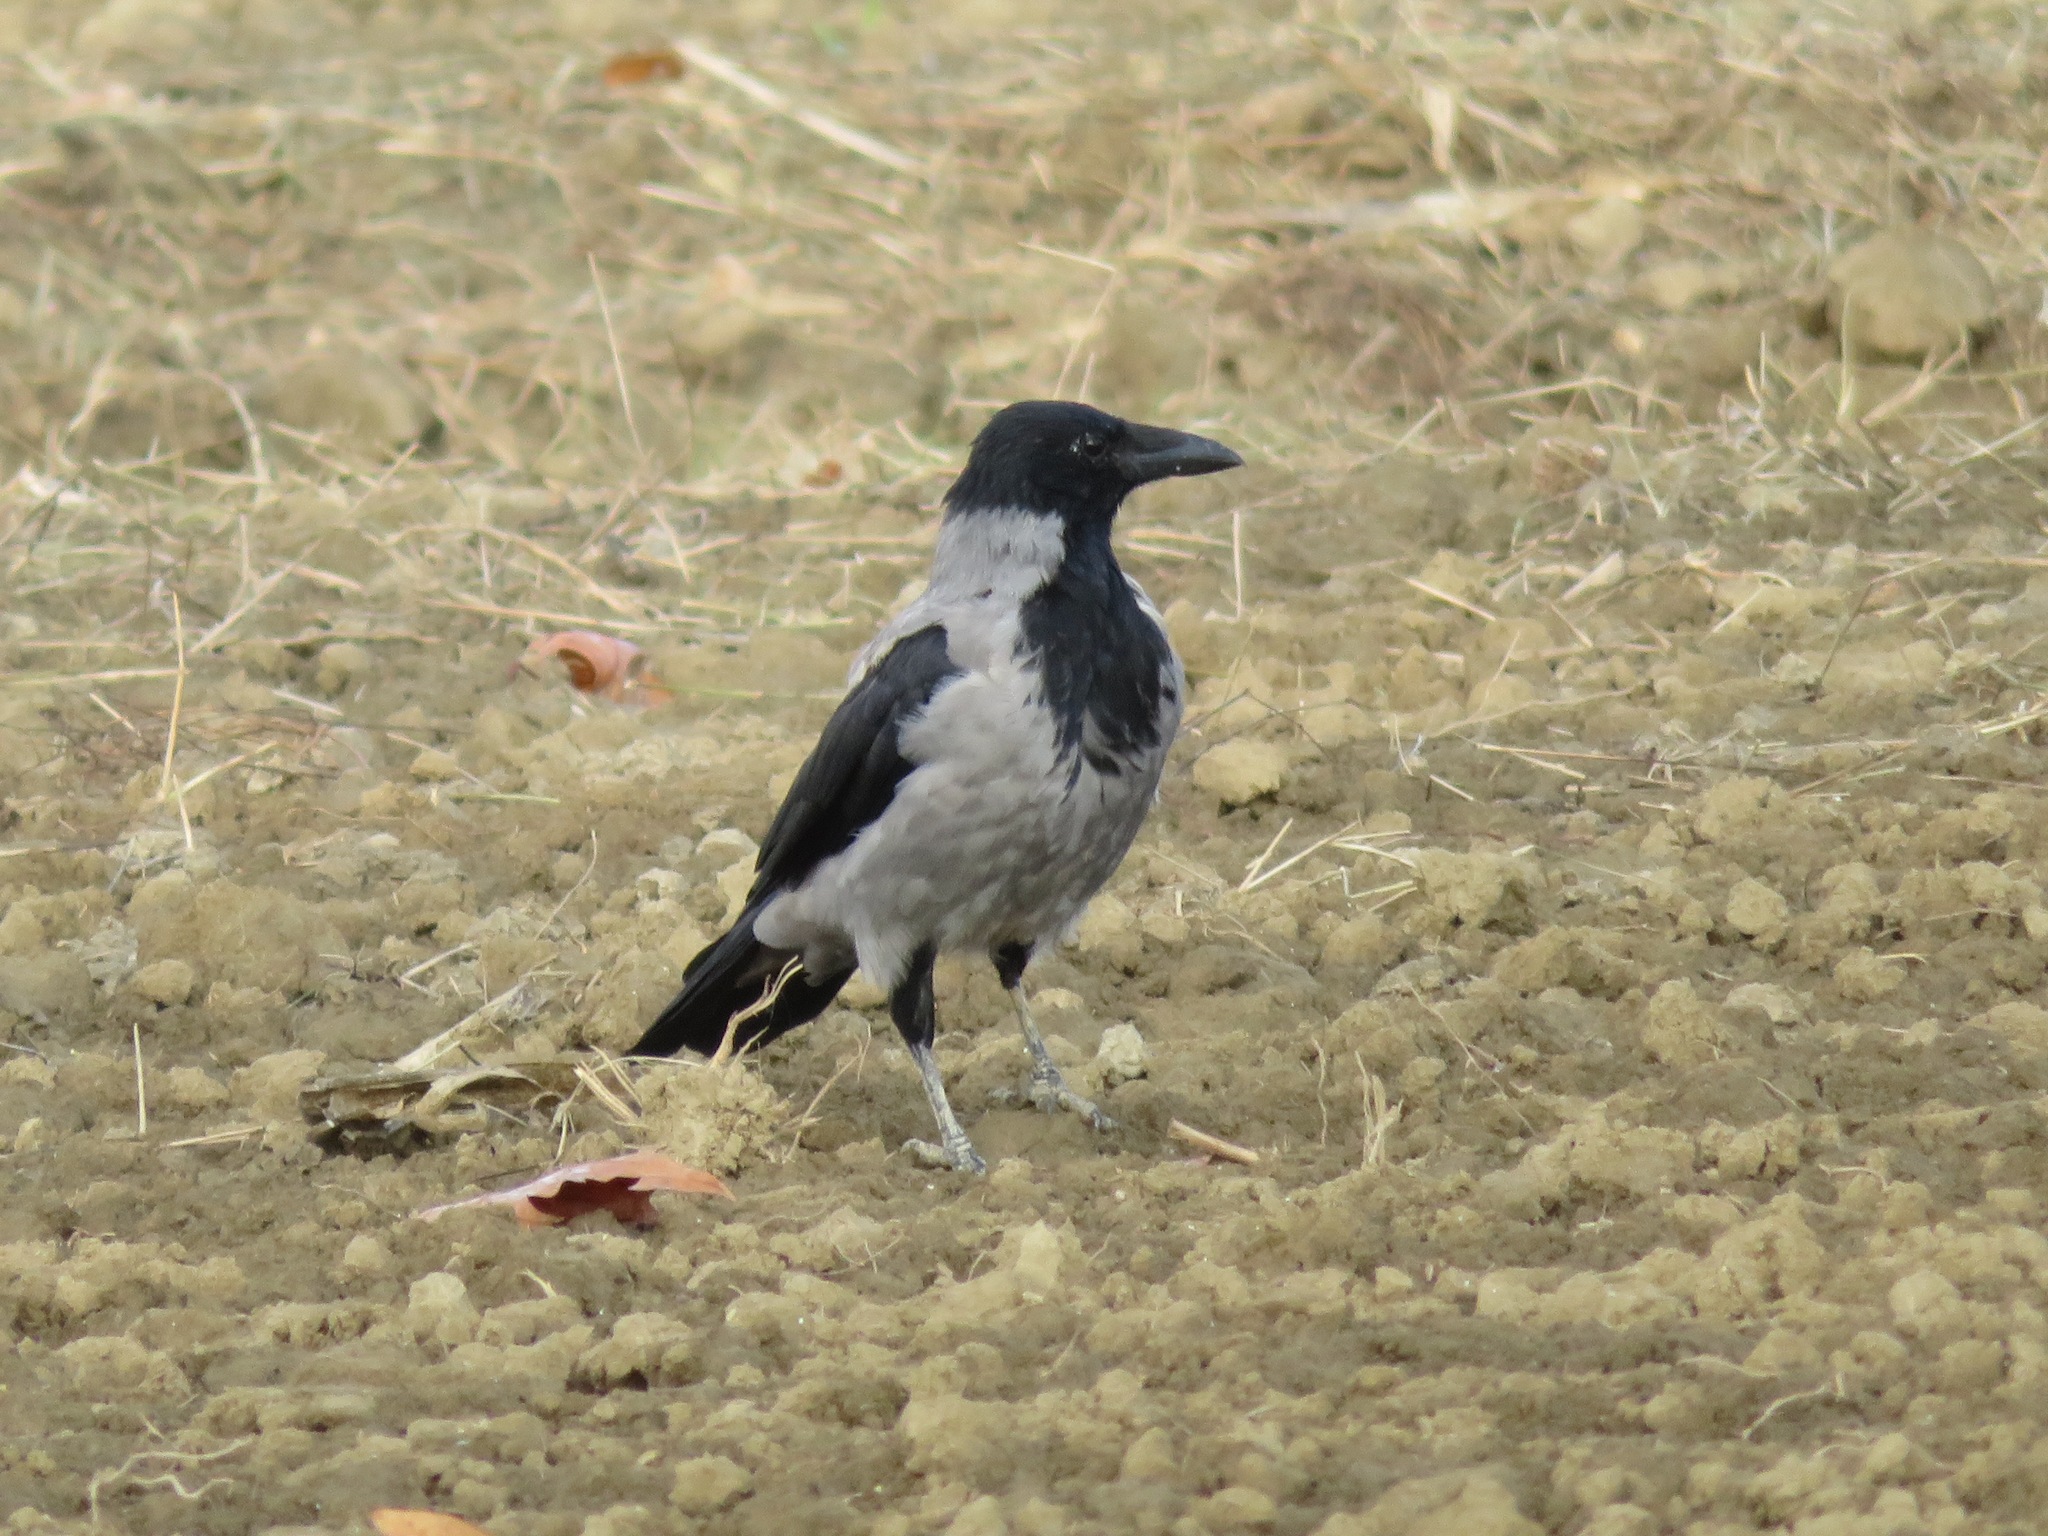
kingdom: Animalia
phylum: Chordata
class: Aves
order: Passeriformes
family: Corvidae
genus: Corvus
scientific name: Corvus cornix
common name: Hooded crow
